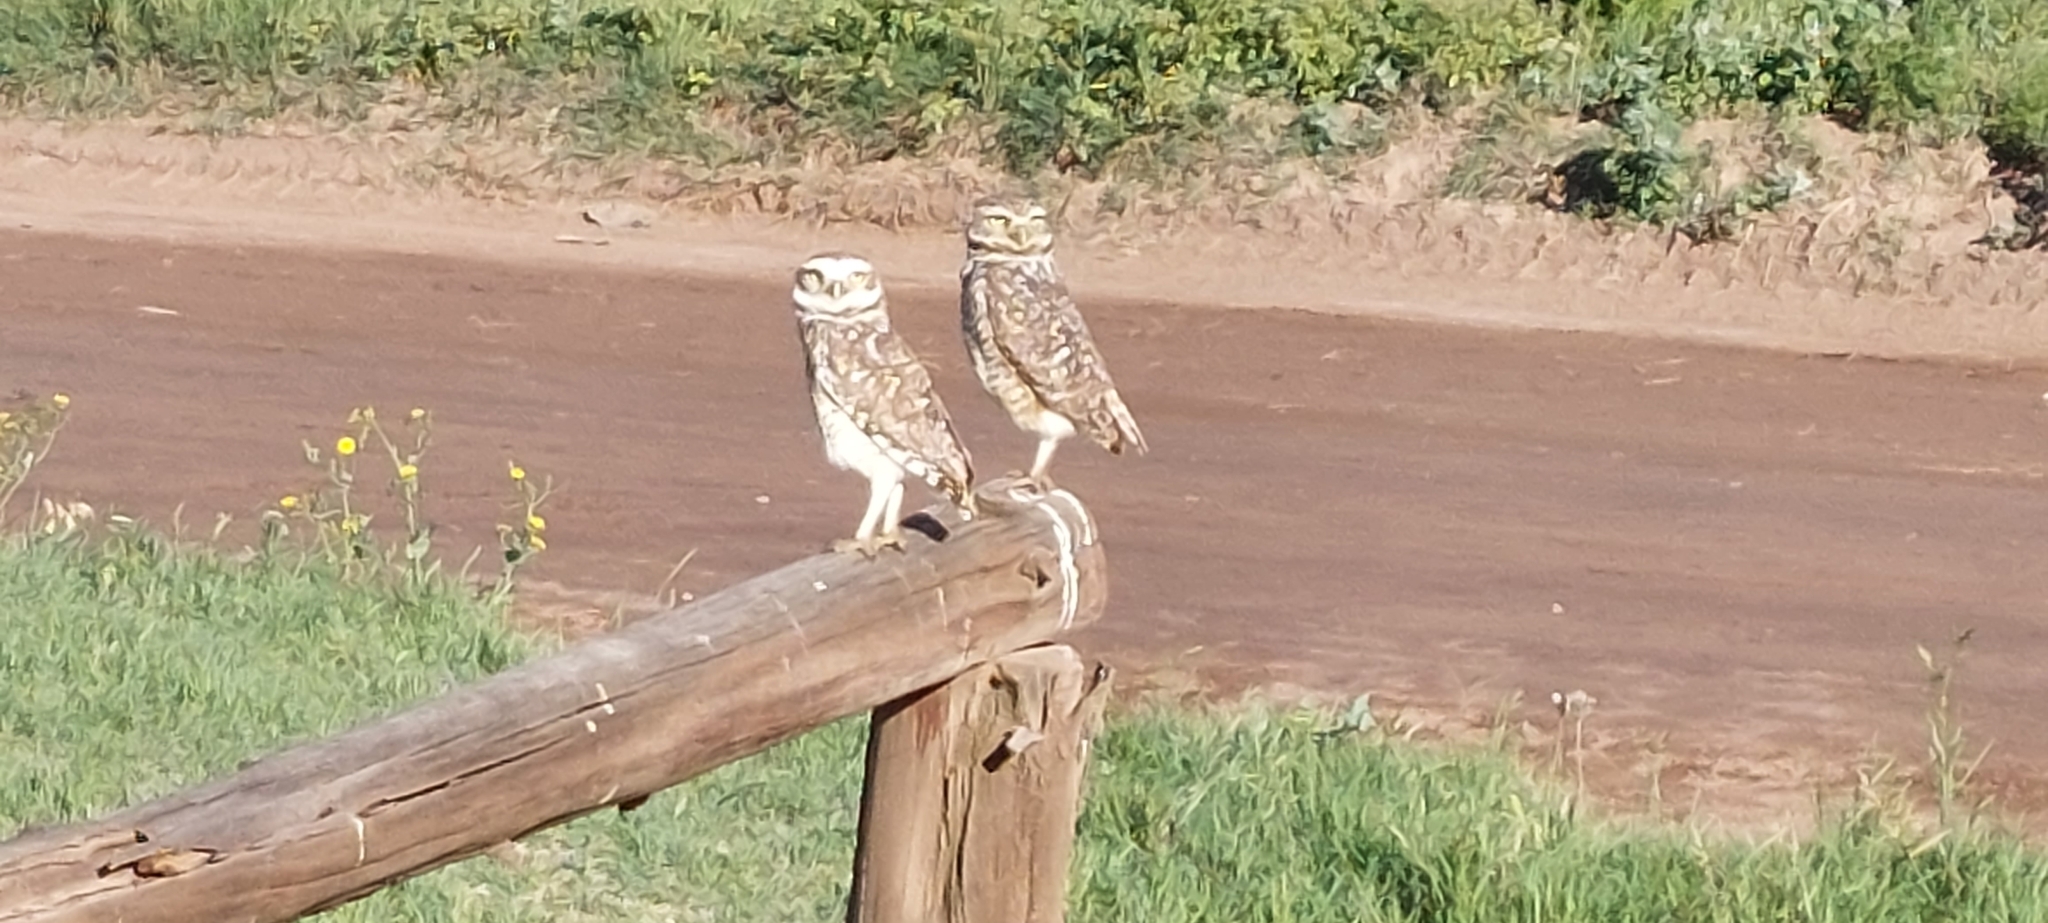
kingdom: Animalia
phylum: Chordata
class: Aves
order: Strigiformes
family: Strigidae
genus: Athene
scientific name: Athene cunicularia
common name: Burrowing owl
